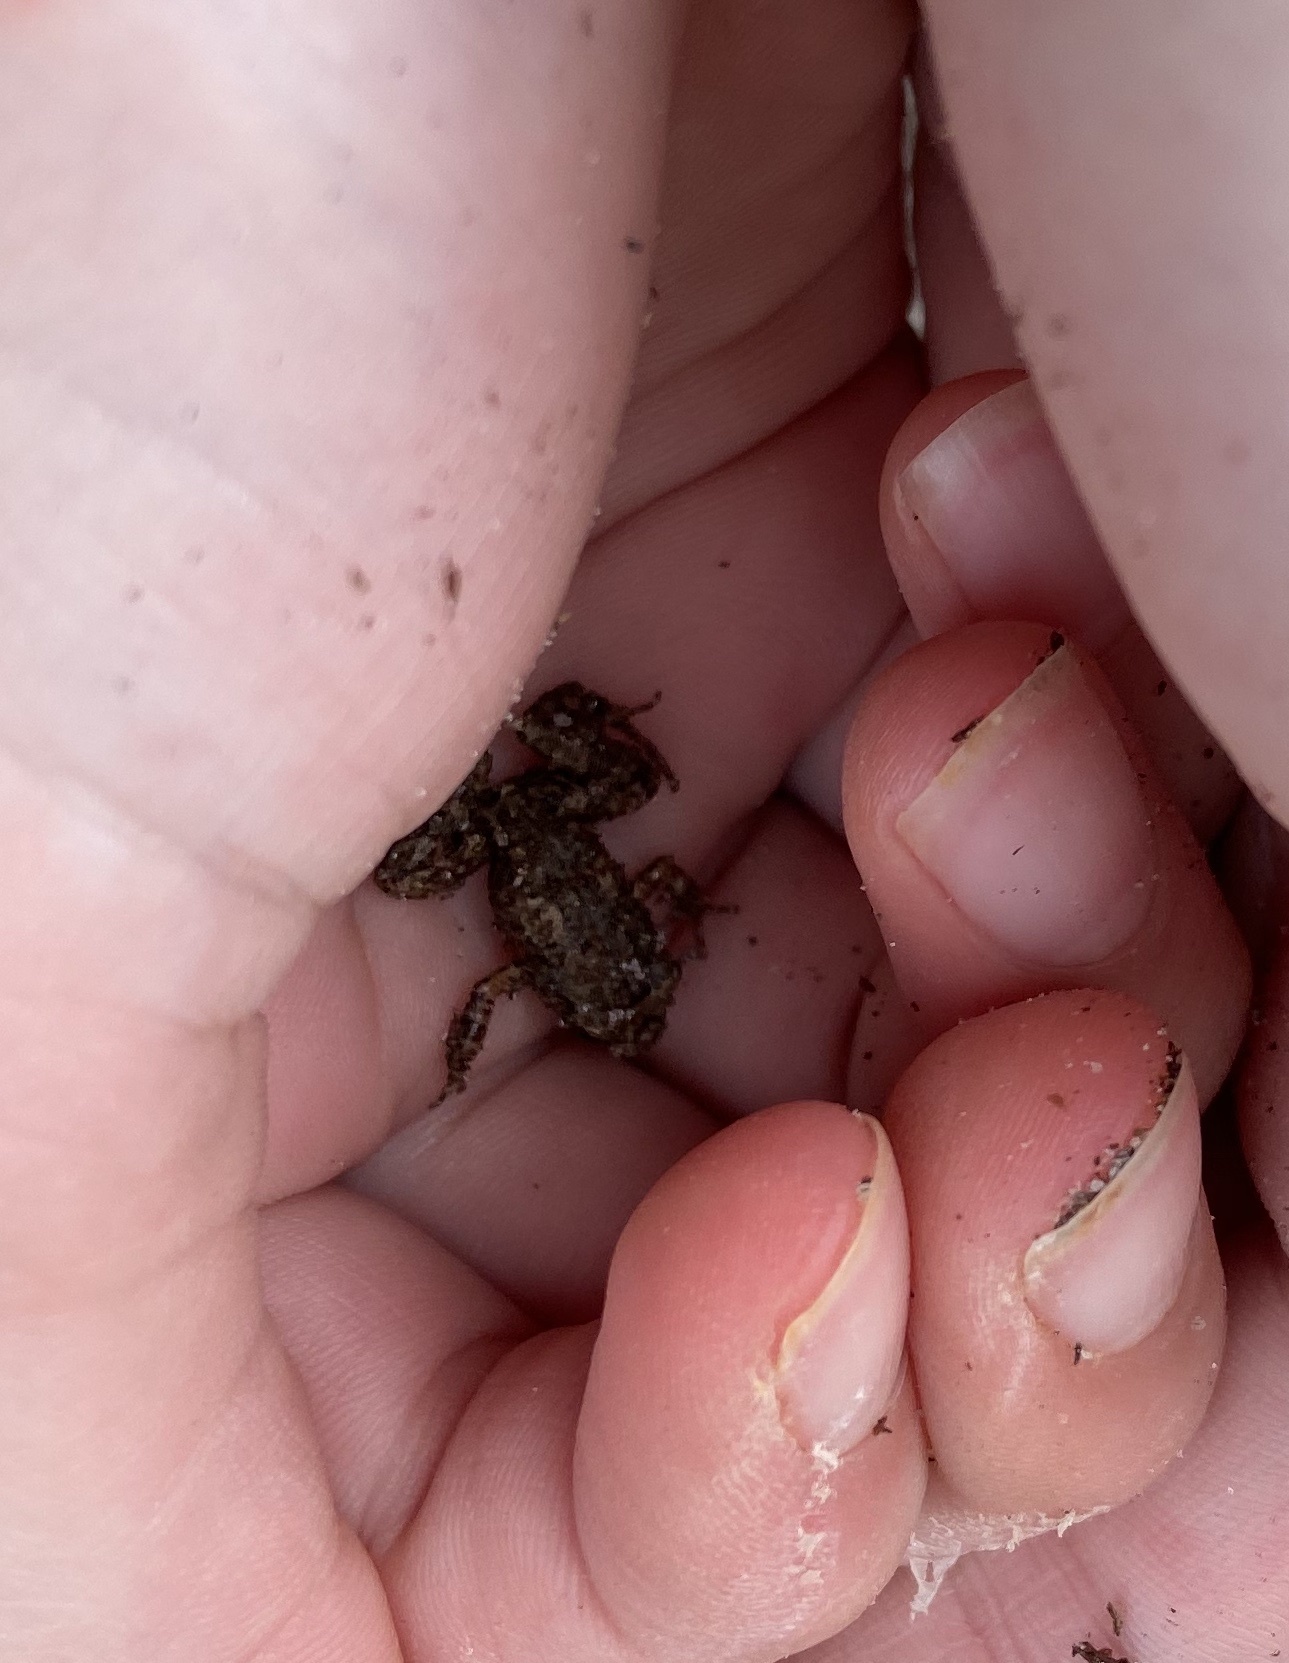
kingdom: Animalia
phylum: Chordata
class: Amphibia
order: Anura
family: Eleutherodactylidae
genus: Eleutherodactylus
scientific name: Eleutherodactylus planirostris
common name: Greenhouse frog
